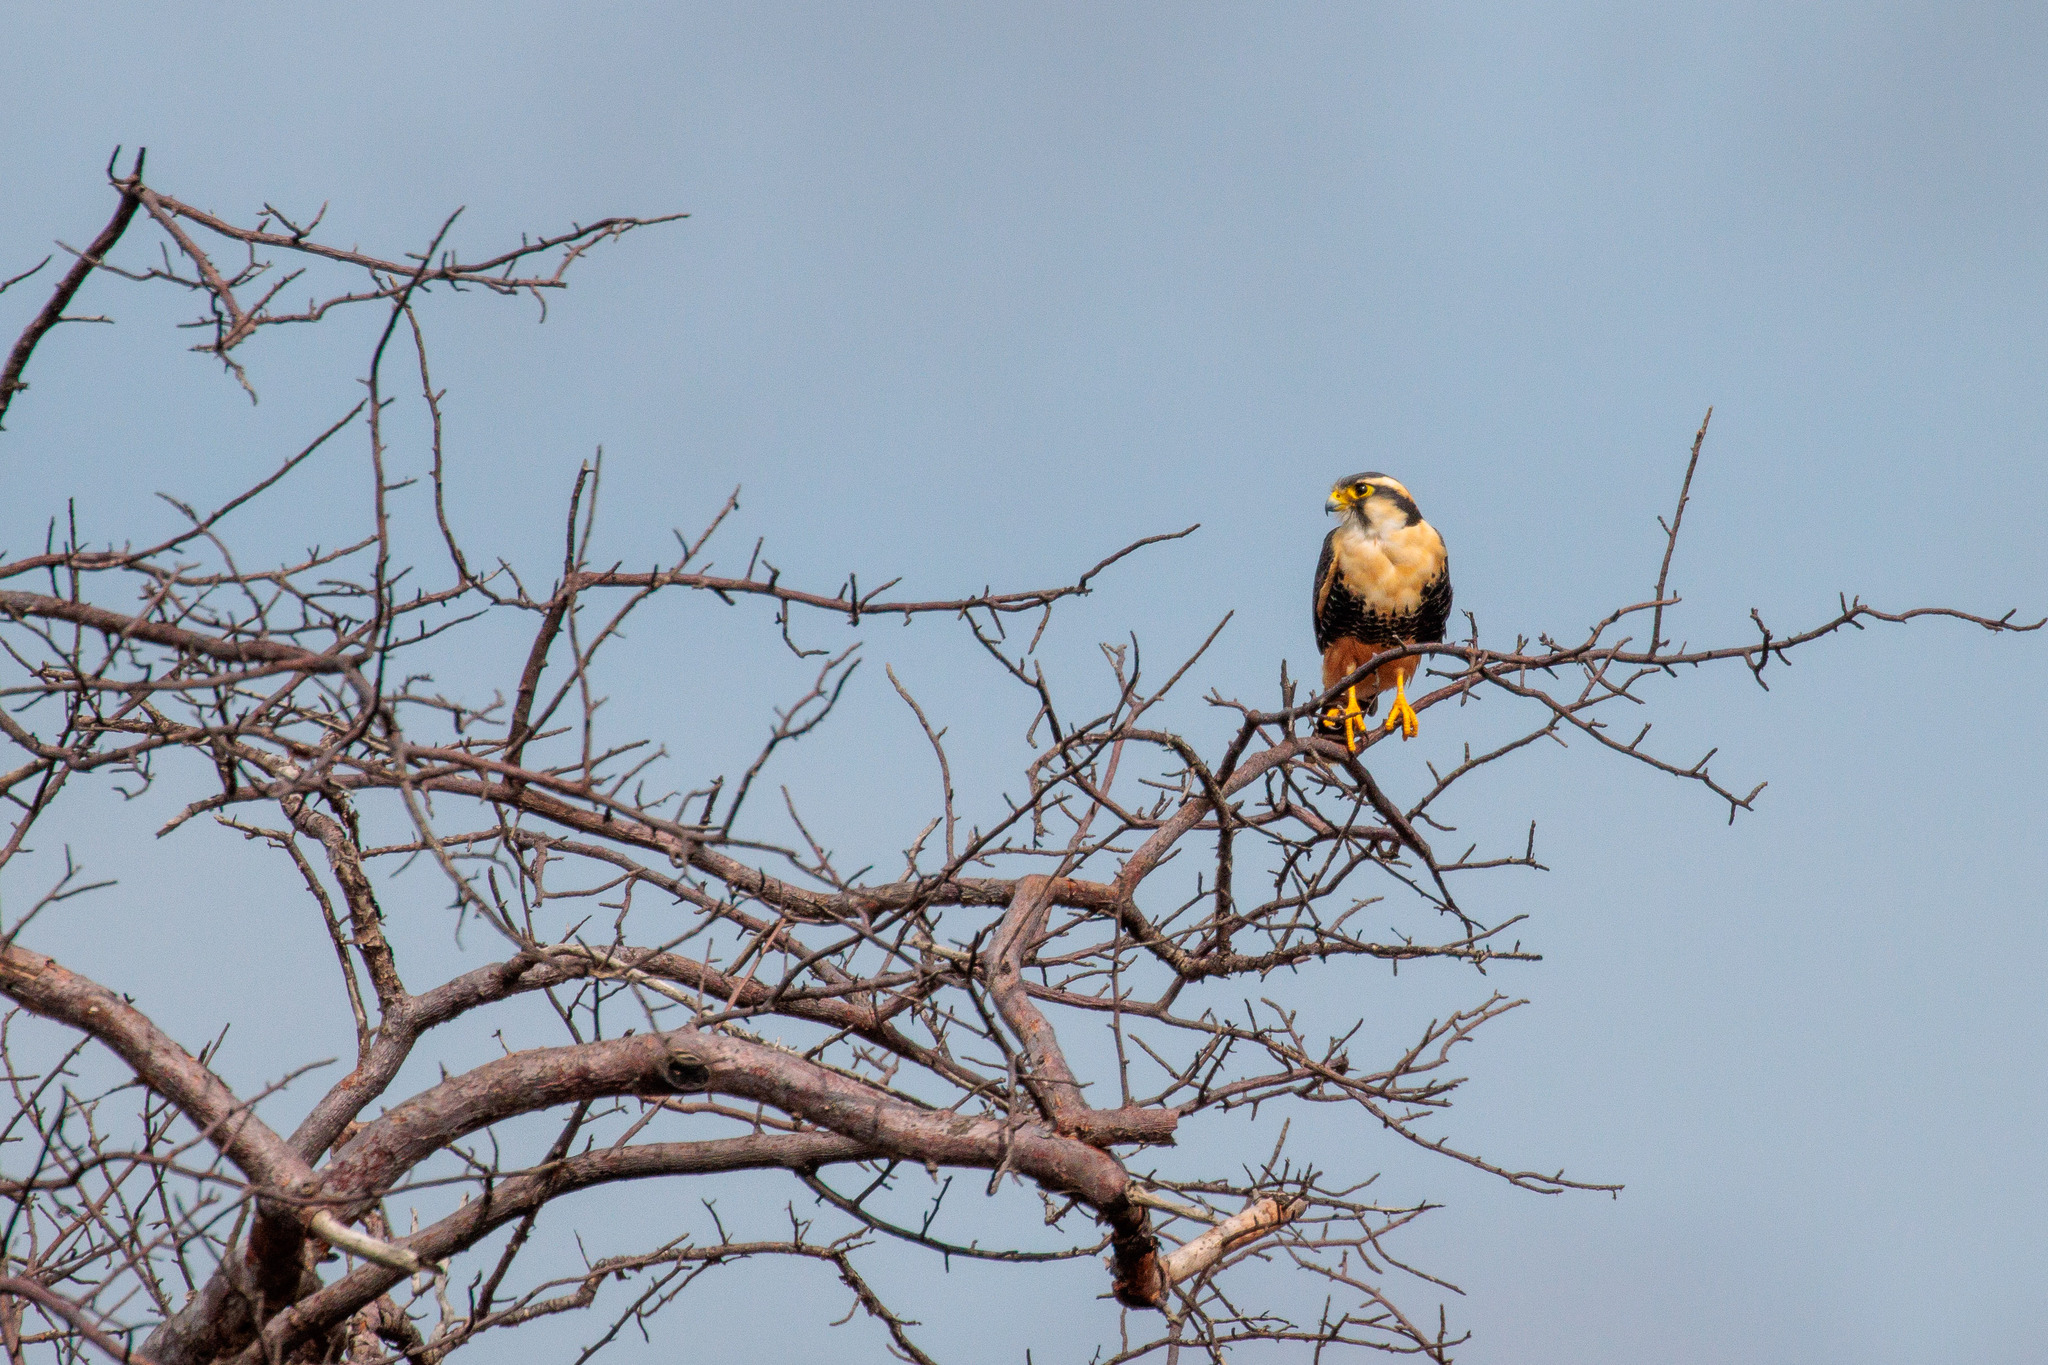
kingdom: Animalia
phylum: Chordata
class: Aves
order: Falconiformes
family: Falconidae
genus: Falco
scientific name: Falco femoralis
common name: Aplomado falcon
